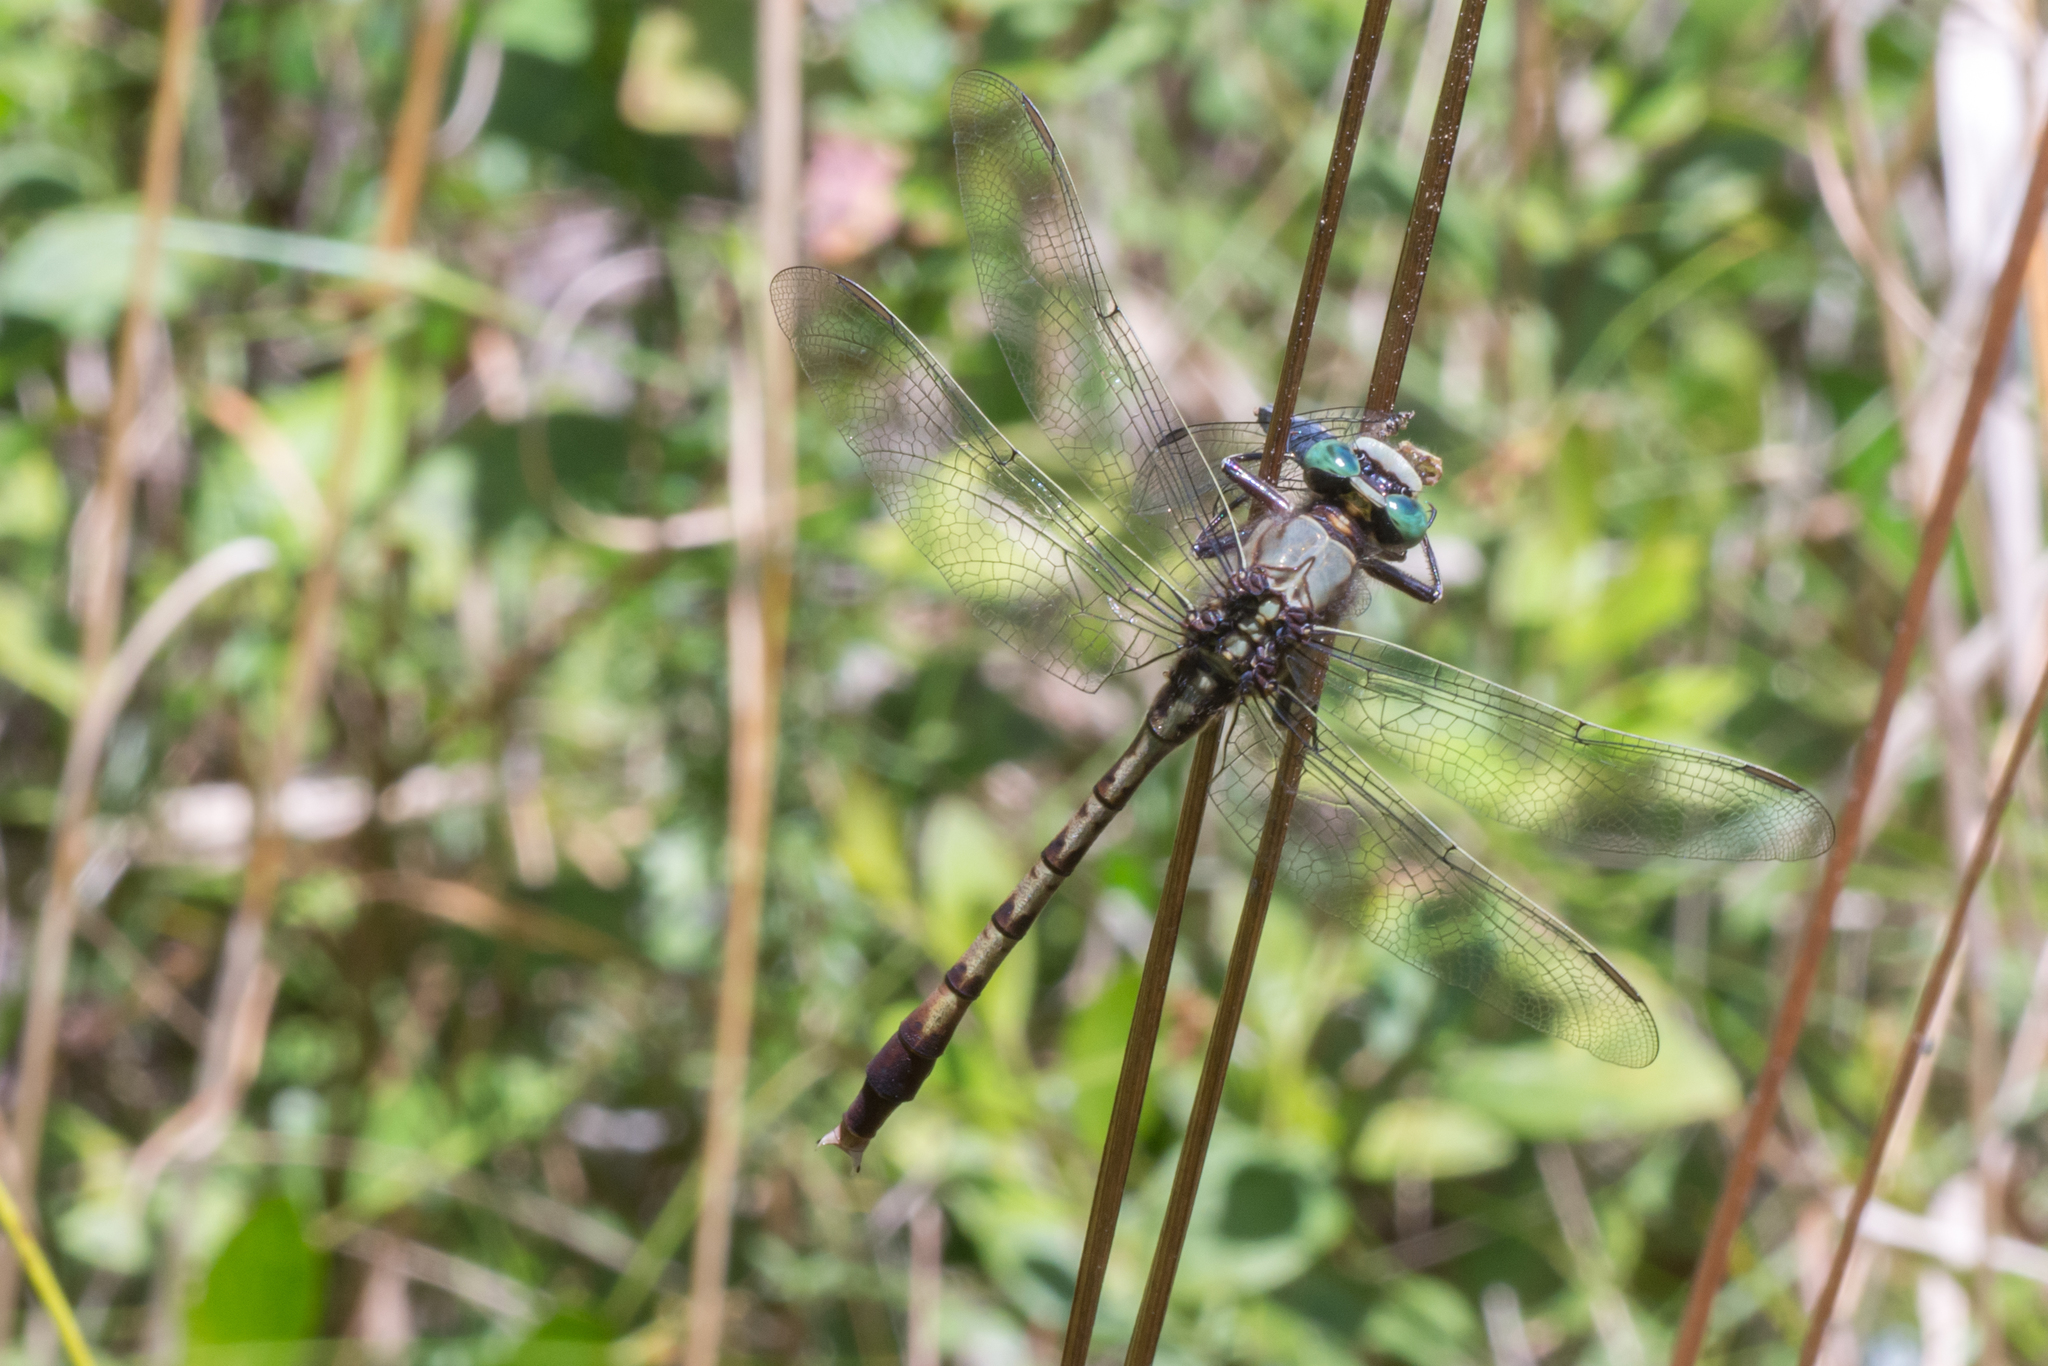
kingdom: Animalia
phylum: Arthropoda
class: Insecta
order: Odonata
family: Gomphidae
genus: Arigomphus
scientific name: Arigomphus pallidus
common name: Gray-green clubtail
